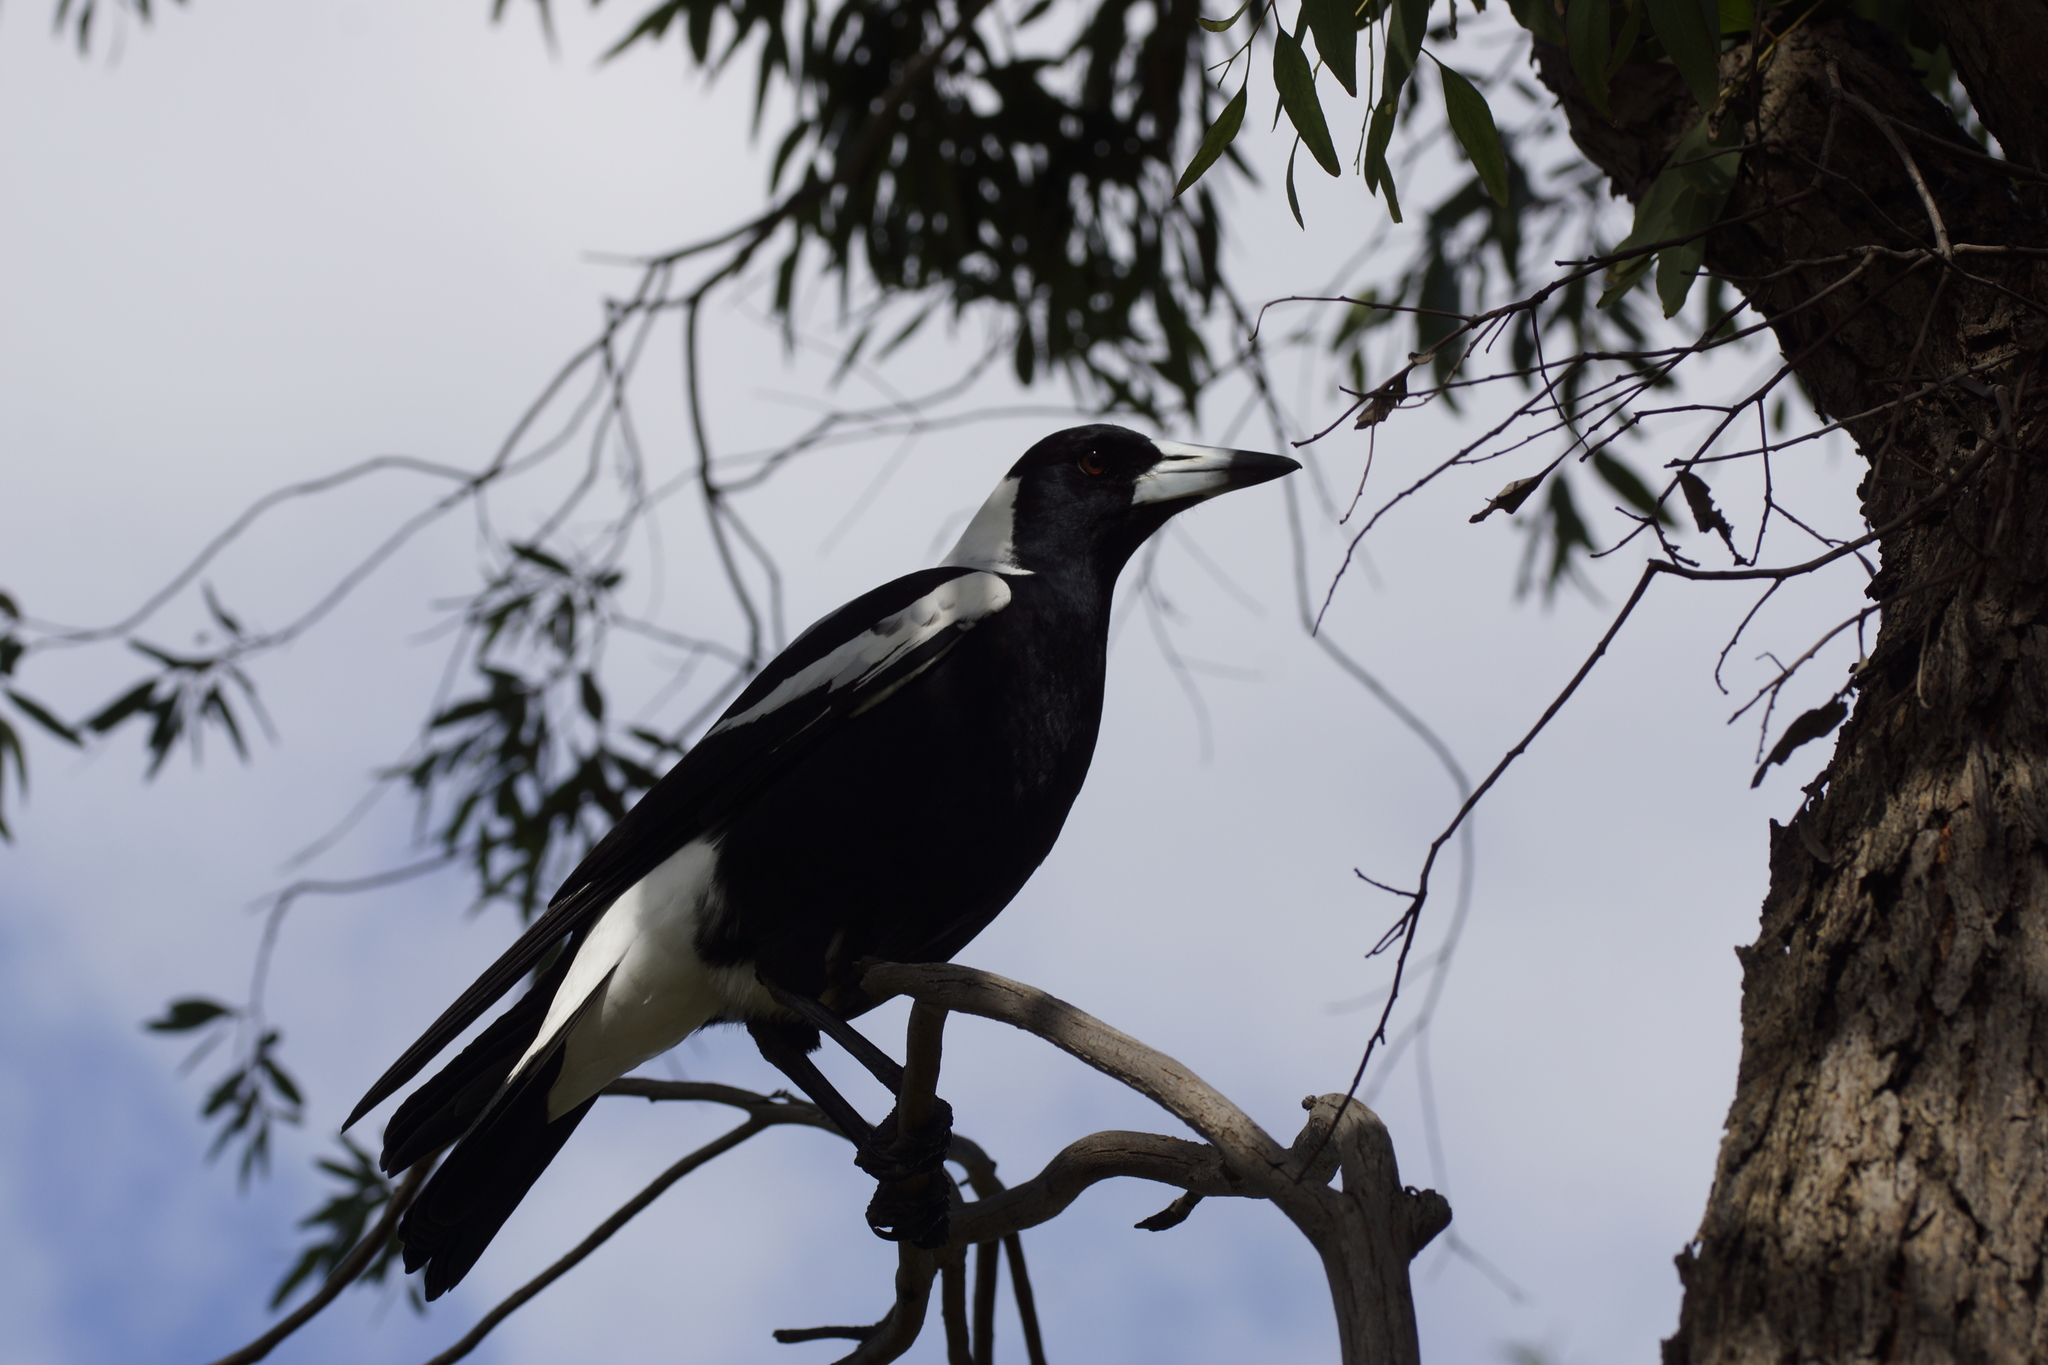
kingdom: Animalia
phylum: Chordata
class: Aves
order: Passeriformes
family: Cracticidae
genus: Gymnorhina
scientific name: Gymnorhina tibicen
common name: Australian magpie
